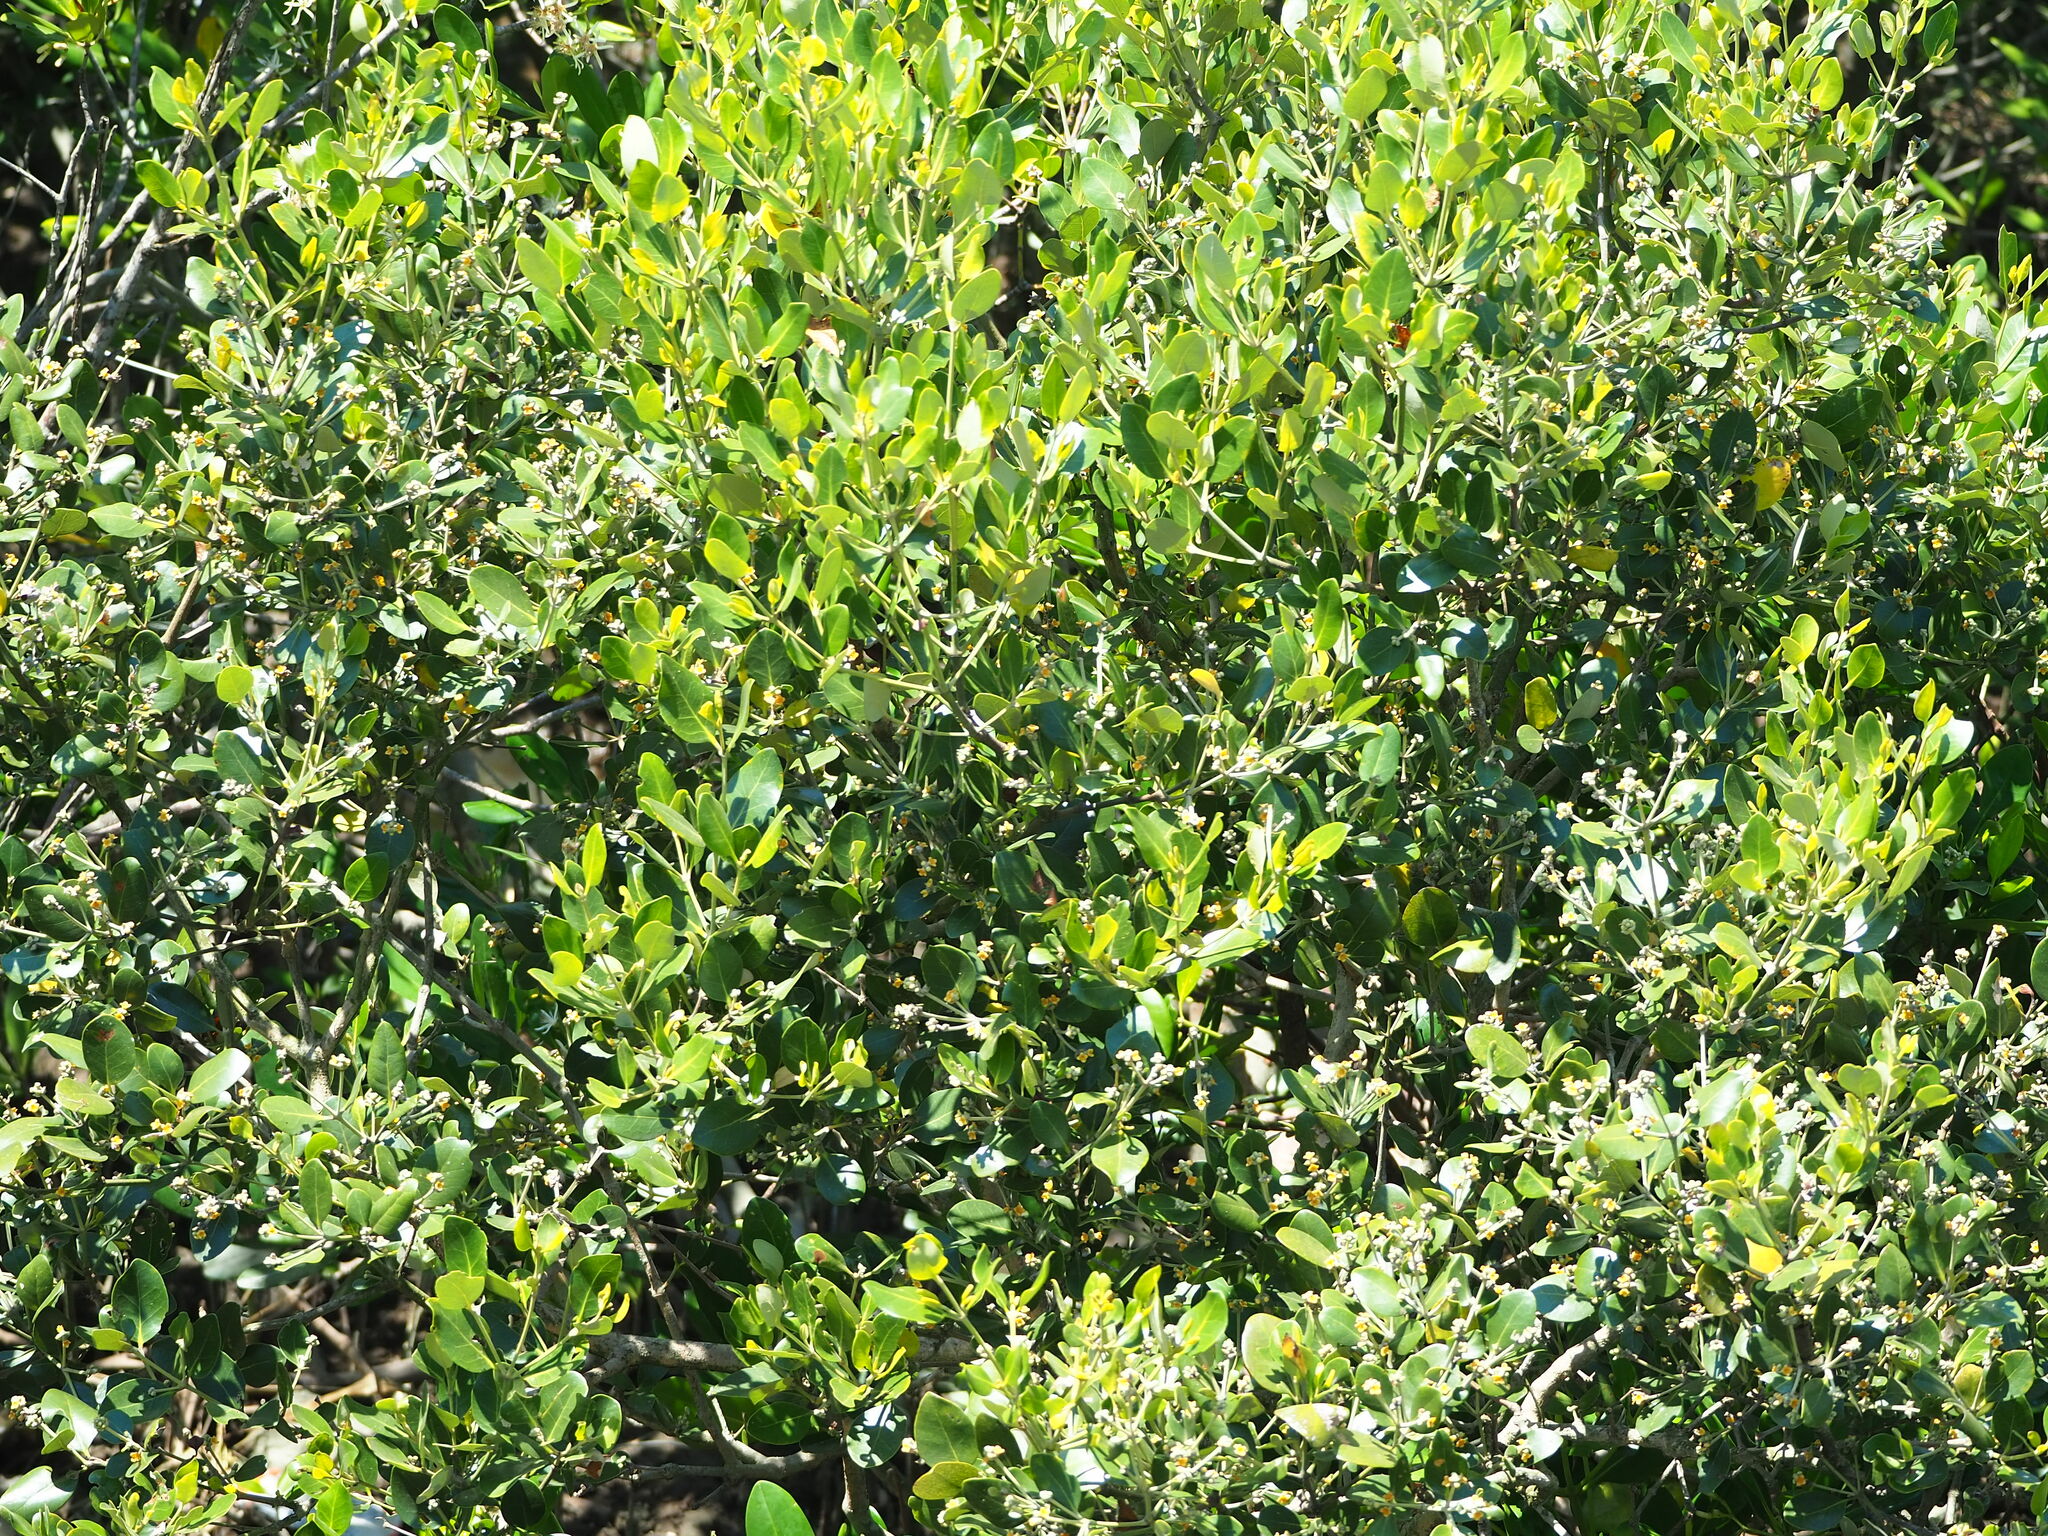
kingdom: Plantae
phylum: Tracheophyta
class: Magnoliopsida
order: Lamiales
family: Acanthaceae
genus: Avicennia
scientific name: Avicennia marina
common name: Gray mangrove
